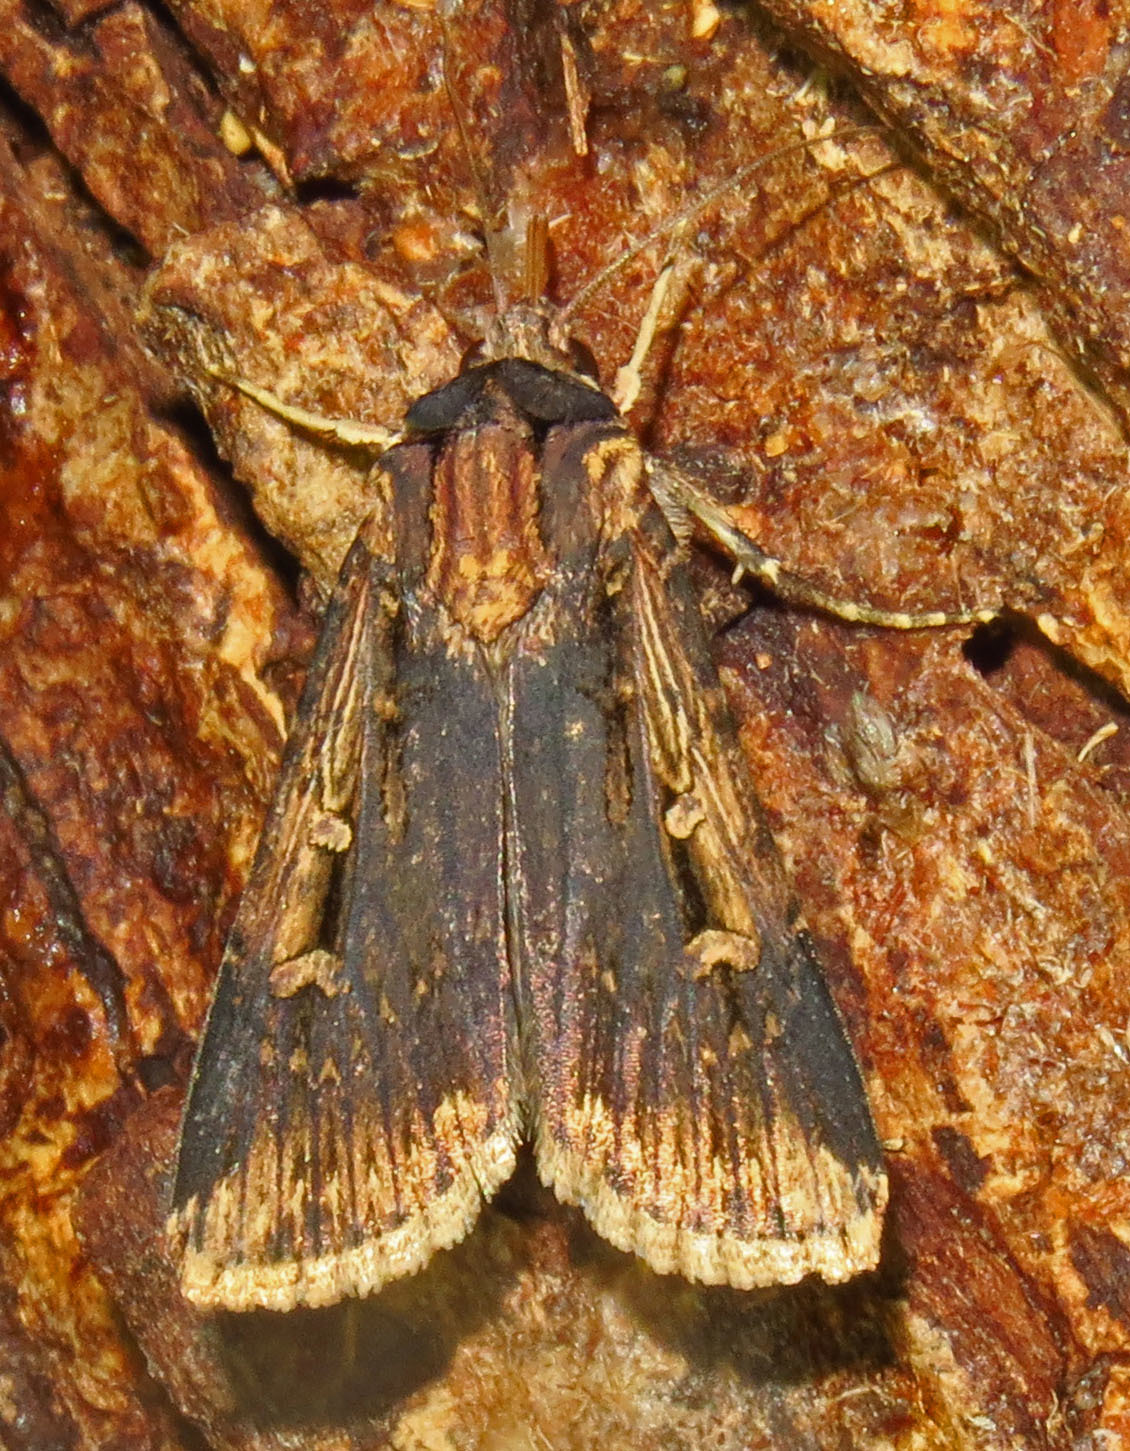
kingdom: Animalia
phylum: Arthropoda
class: Insecta
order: Lepidoptera
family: Noctuidae
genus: Feltia
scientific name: Feltia subterranea
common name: Granulate cutworm
